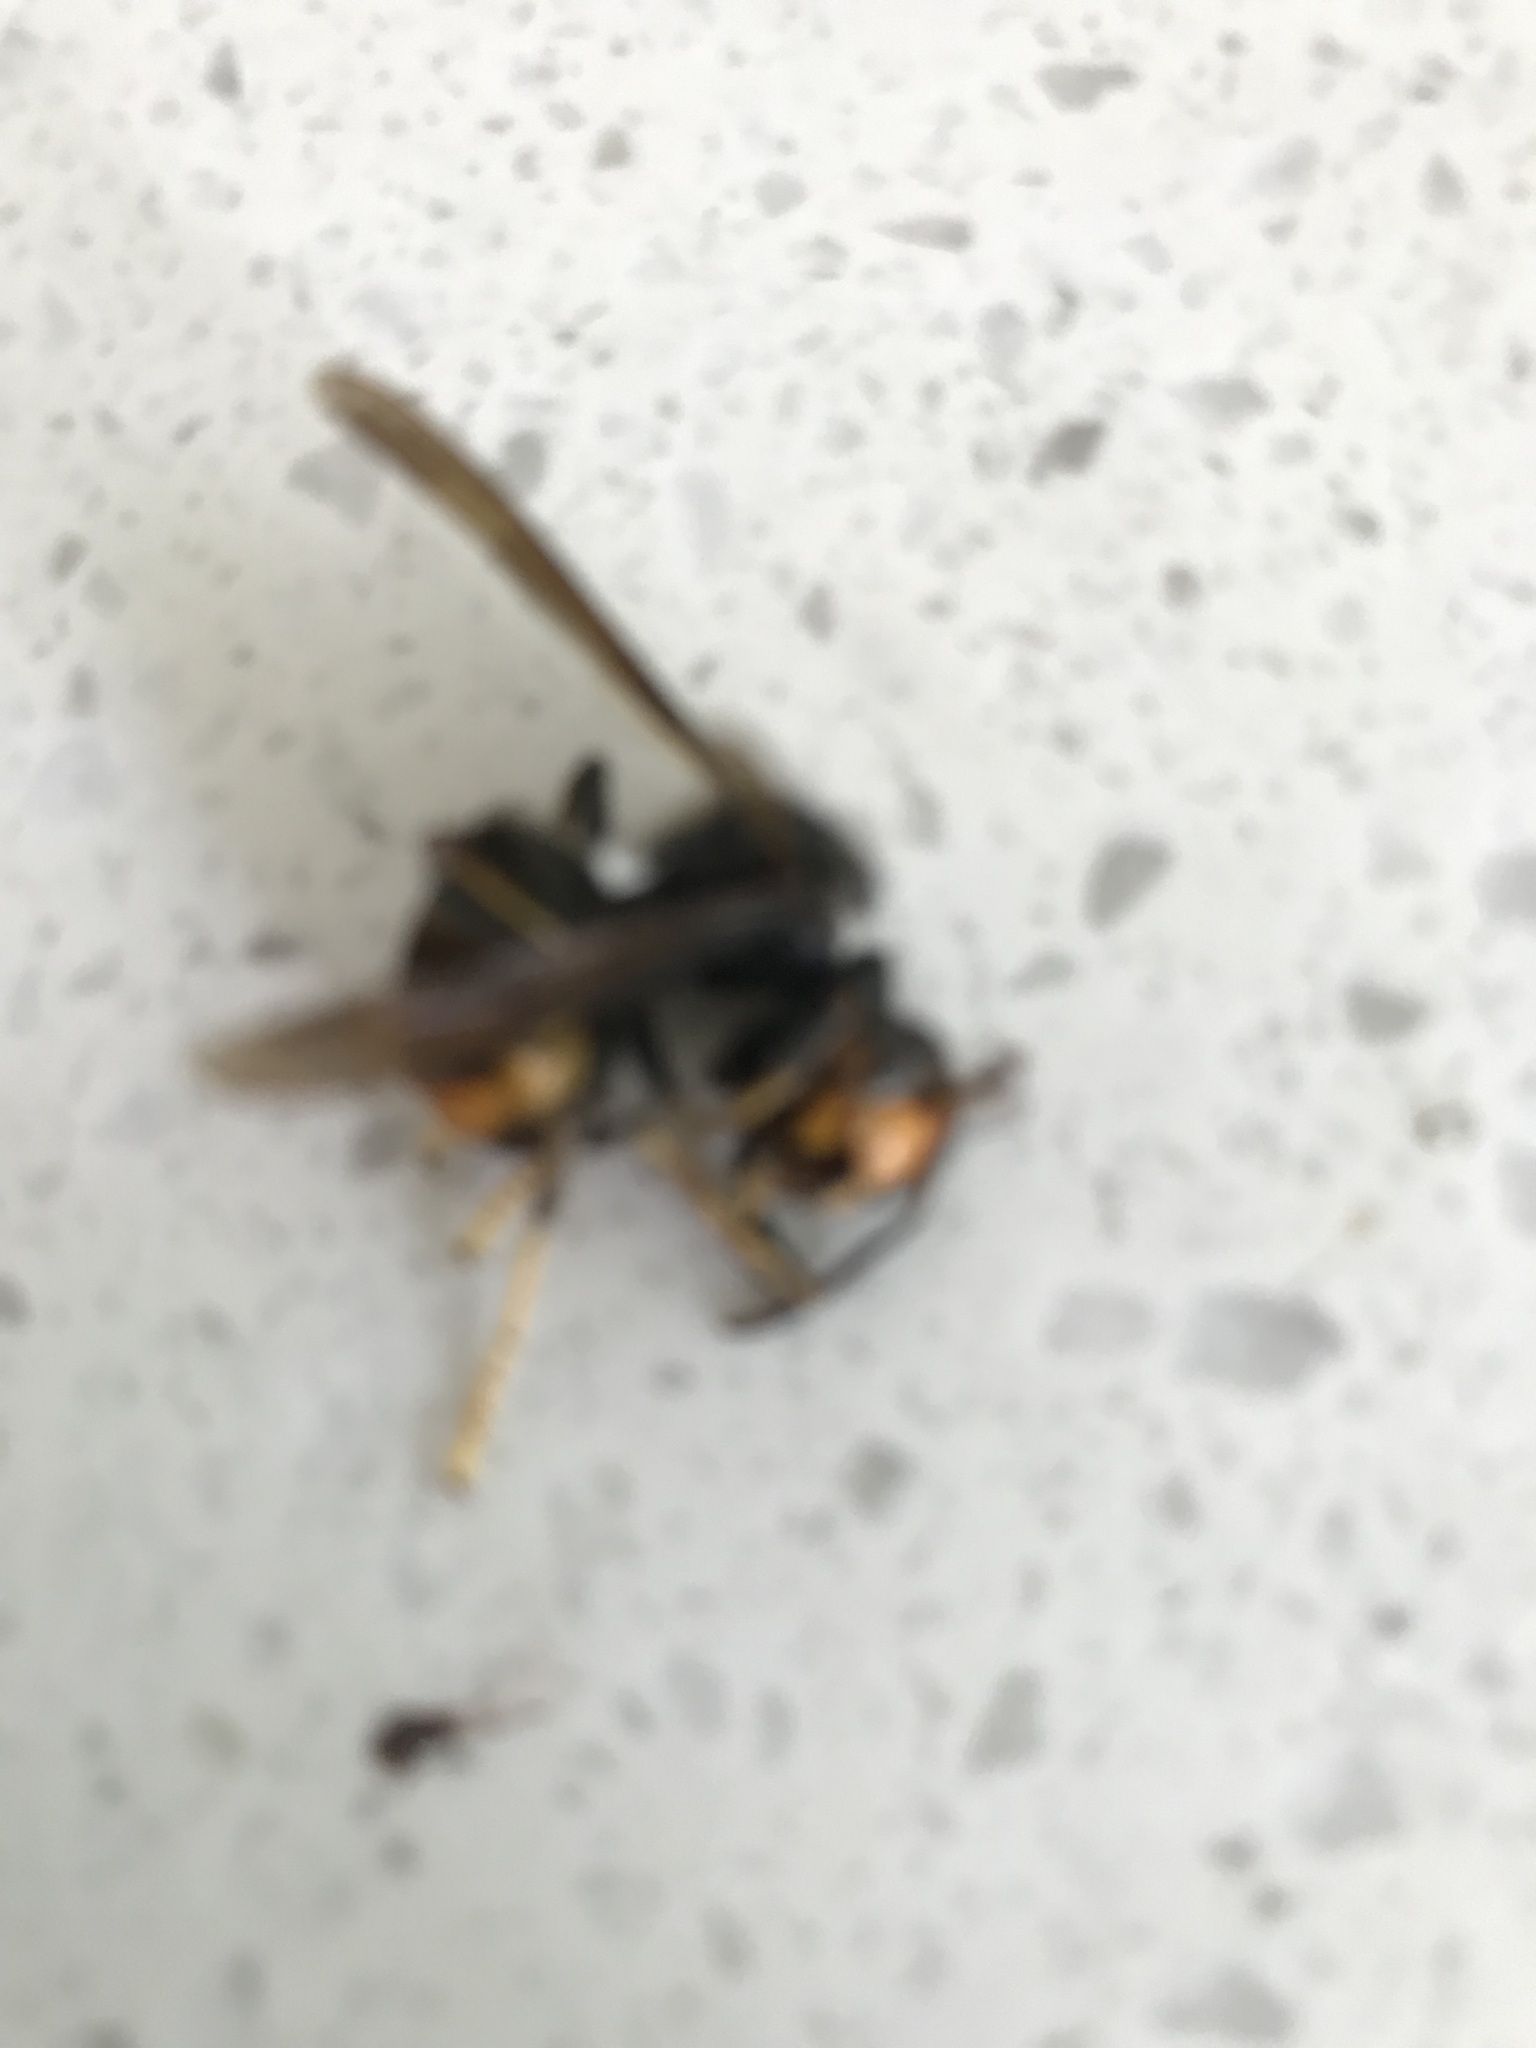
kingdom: Animalia
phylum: Arthropoda
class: Insecta
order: Hymenoptera
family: Vespidae
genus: Vespa
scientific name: Vespa velutina
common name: Asian hornet
